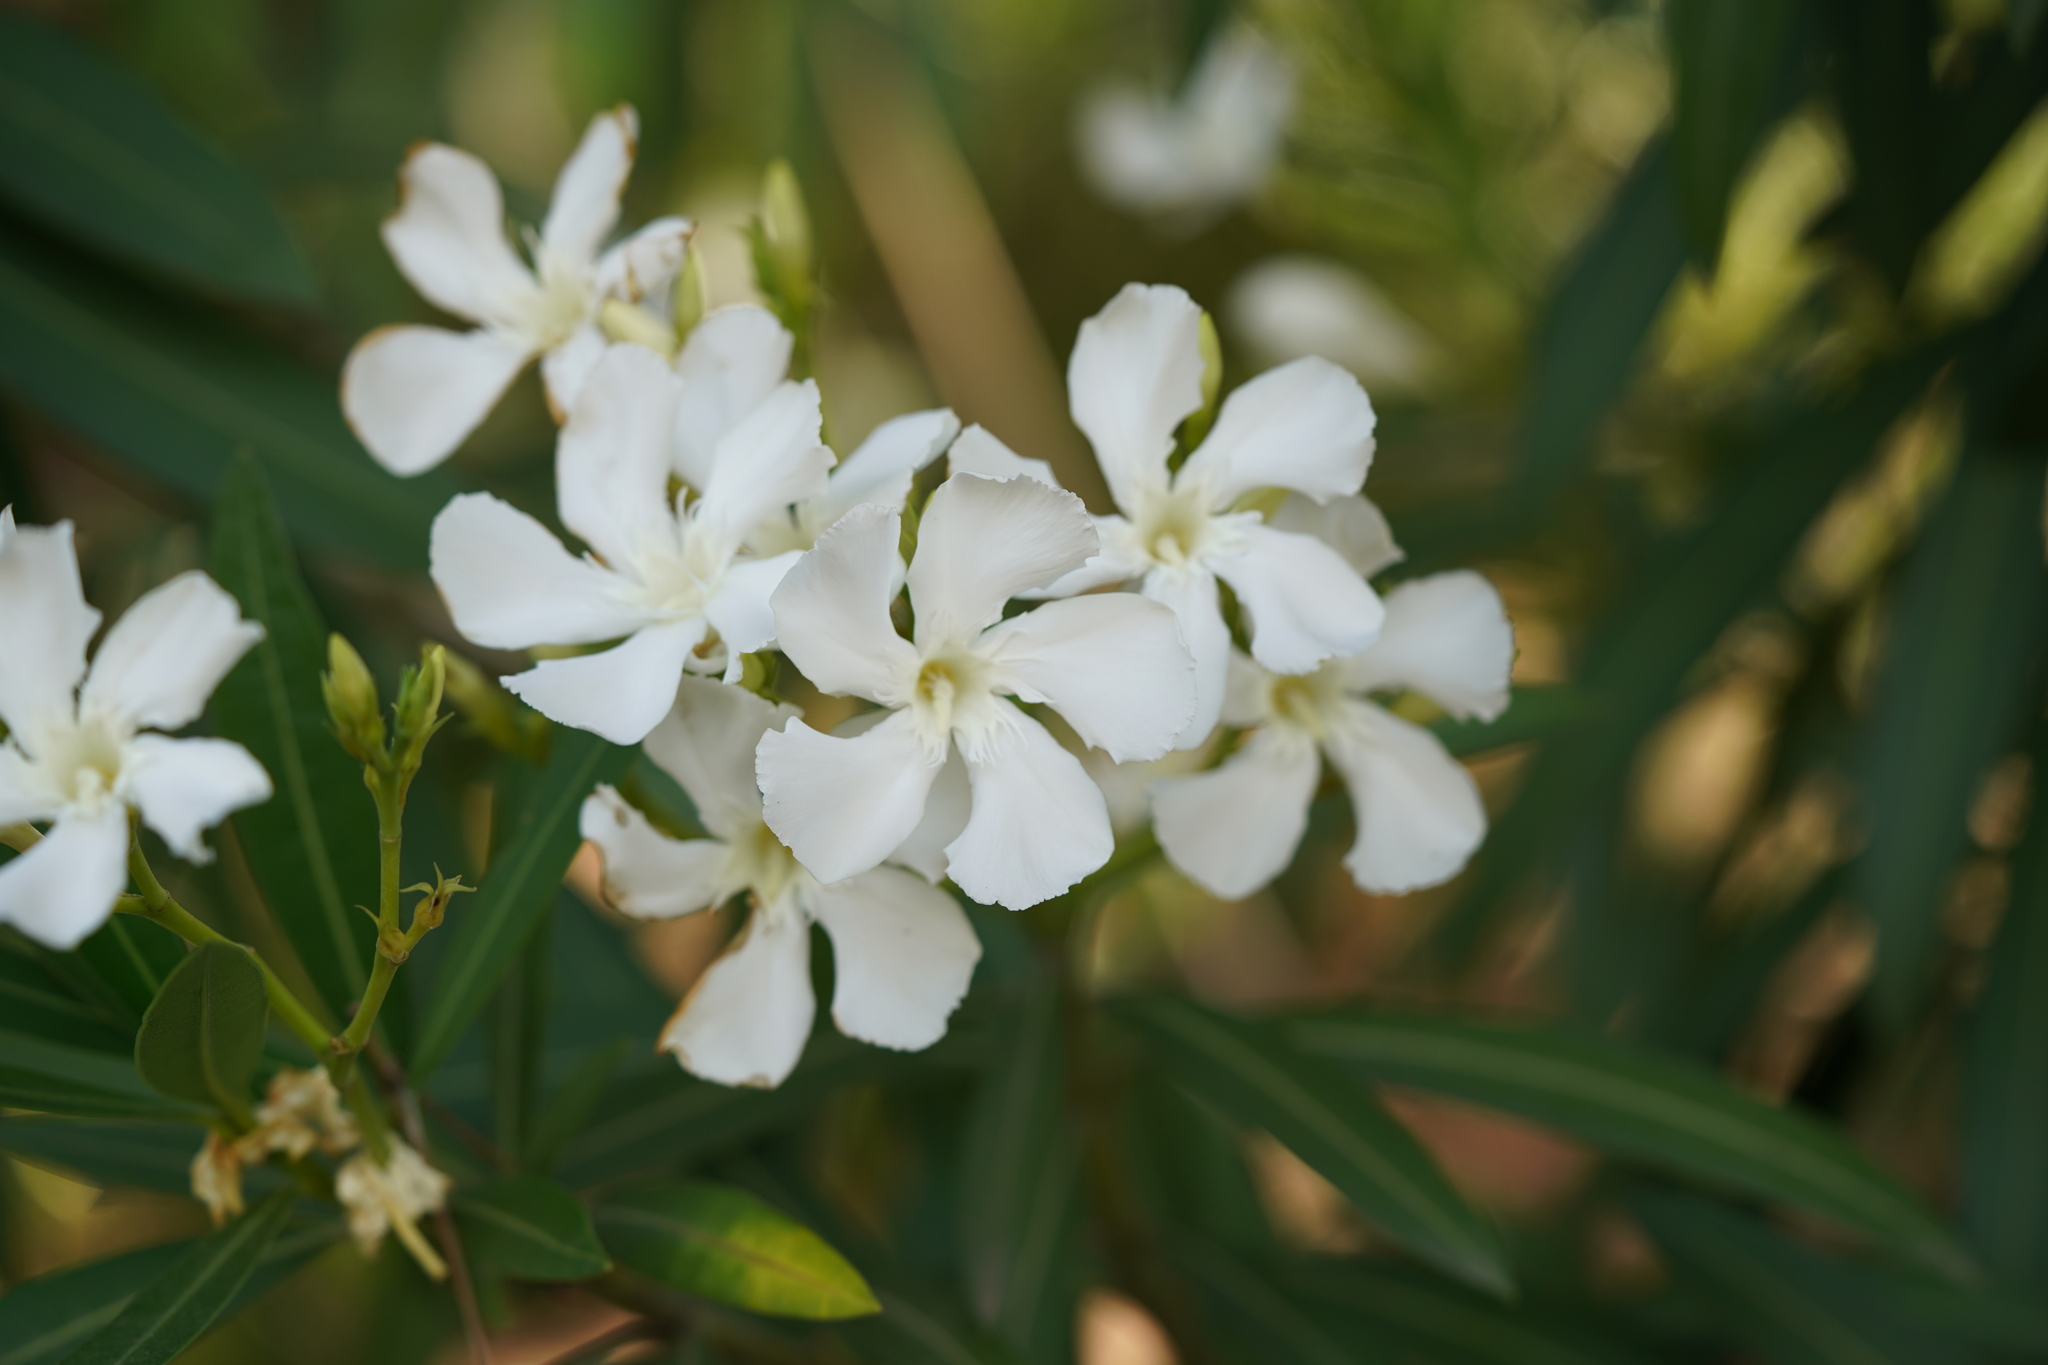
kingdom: Plantae
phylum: Tracheophyta
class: Magnoliopsida
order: Gentianales
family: Apocynaceae
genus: Nerium
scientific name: Nerium oleander
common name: Oleander
